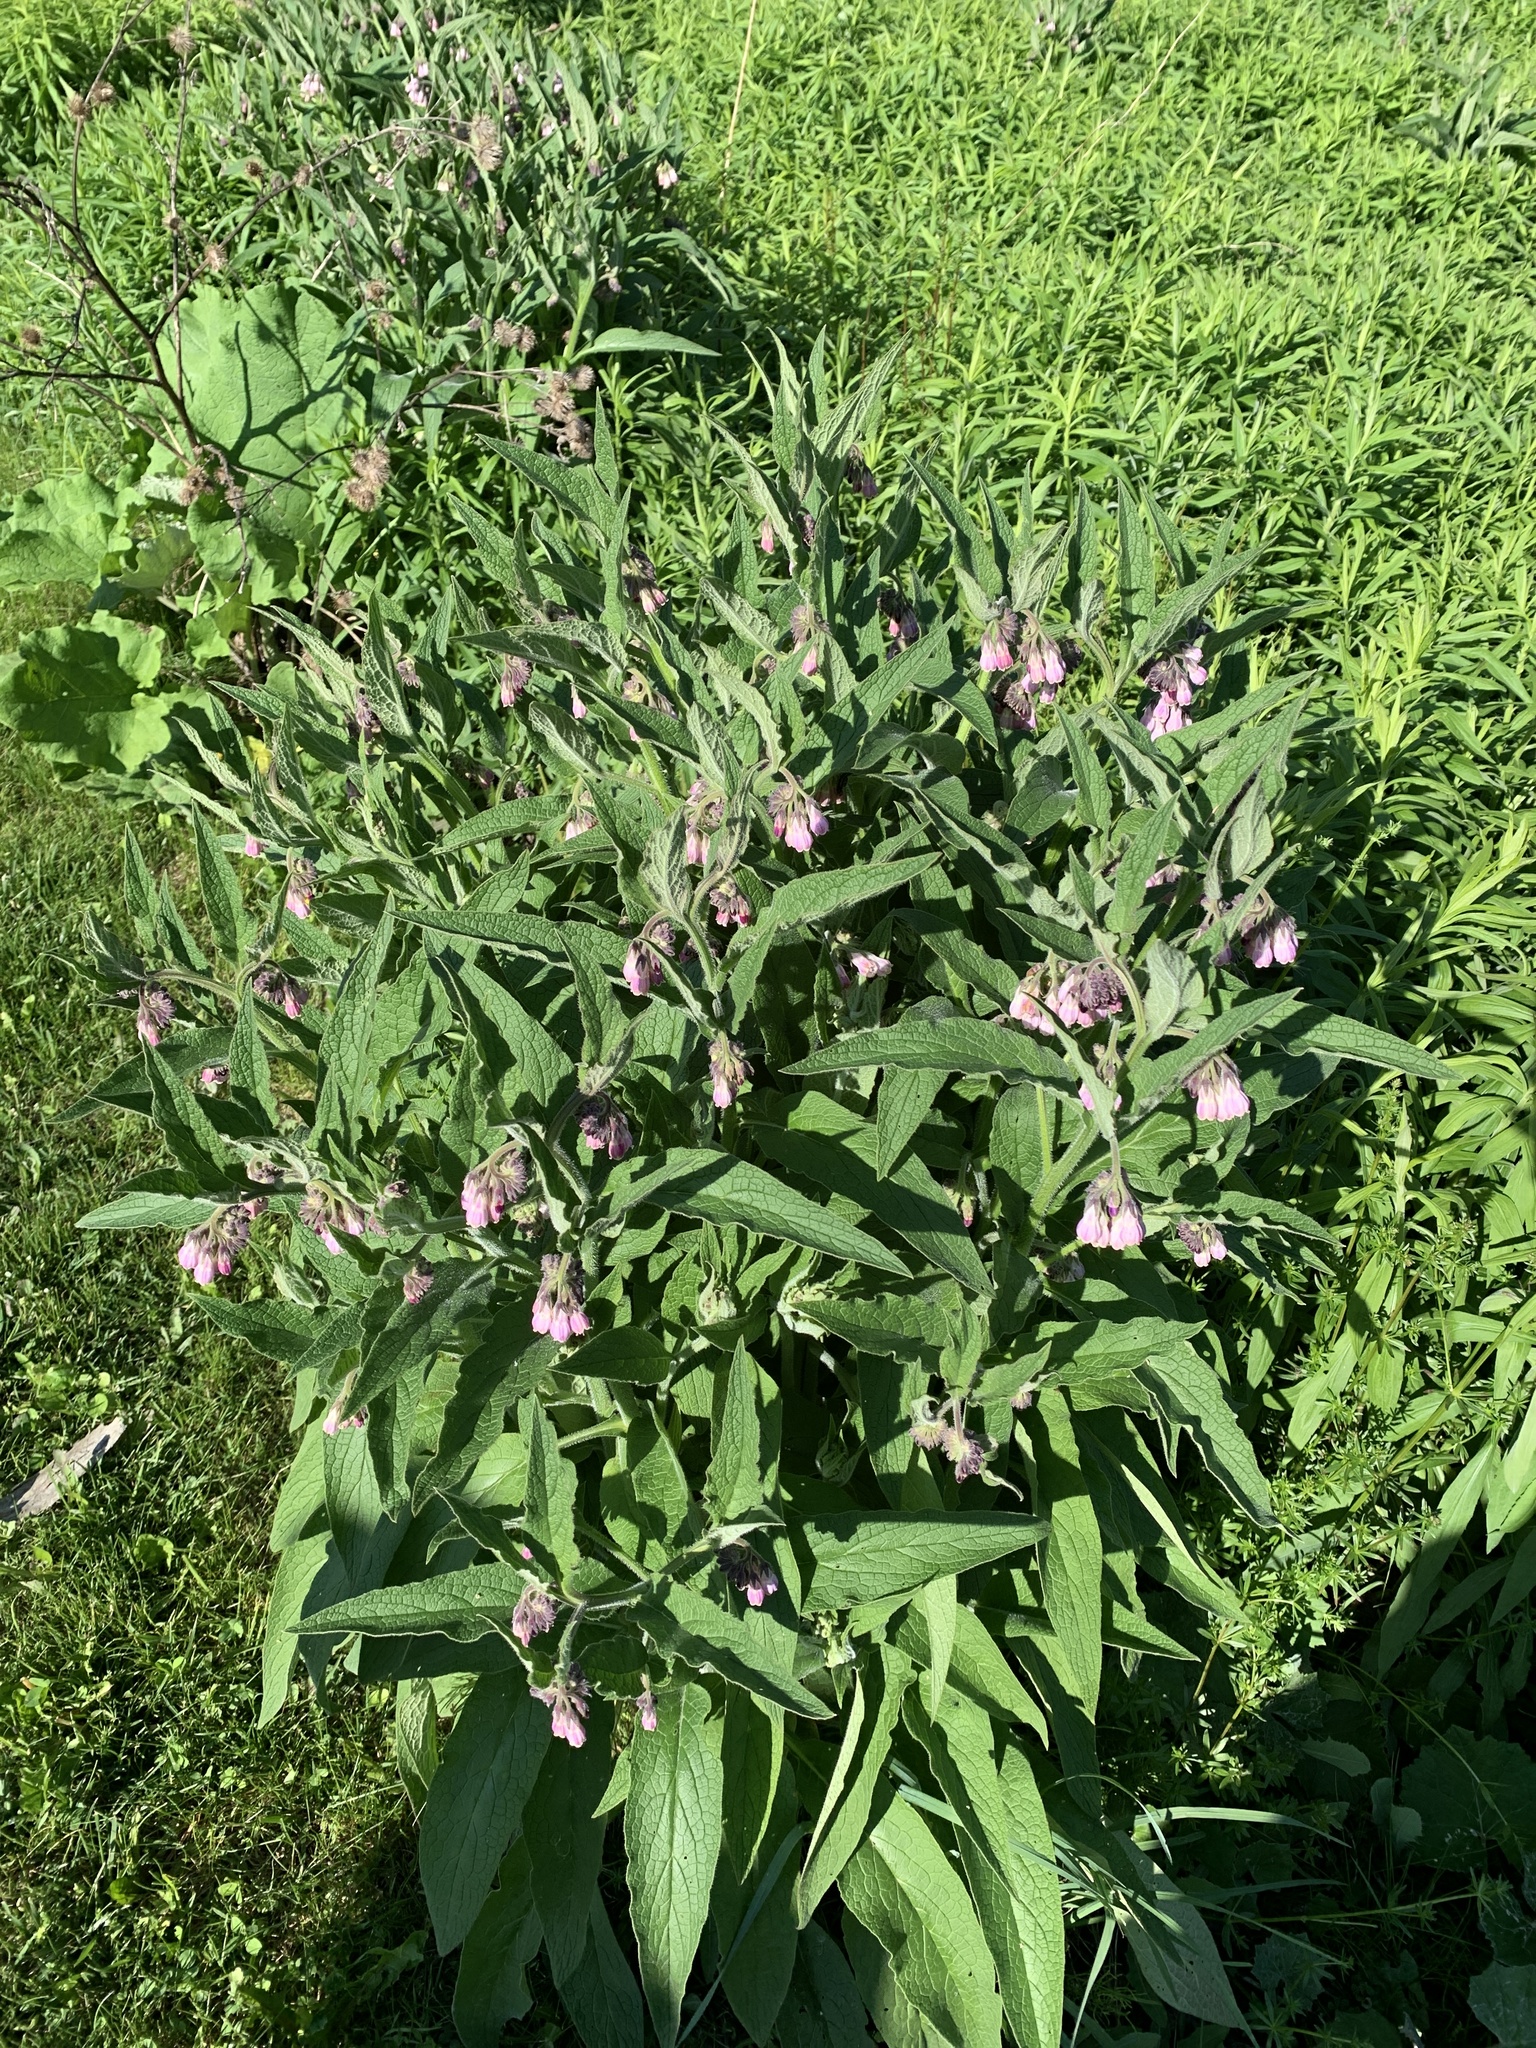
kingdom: Plantae
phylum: Tracheophyta
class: Magnoliopsida
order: Boraginales
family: Boraginaceae
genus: Symphytum
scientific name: Symphytum officinale
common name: Common comfrey
